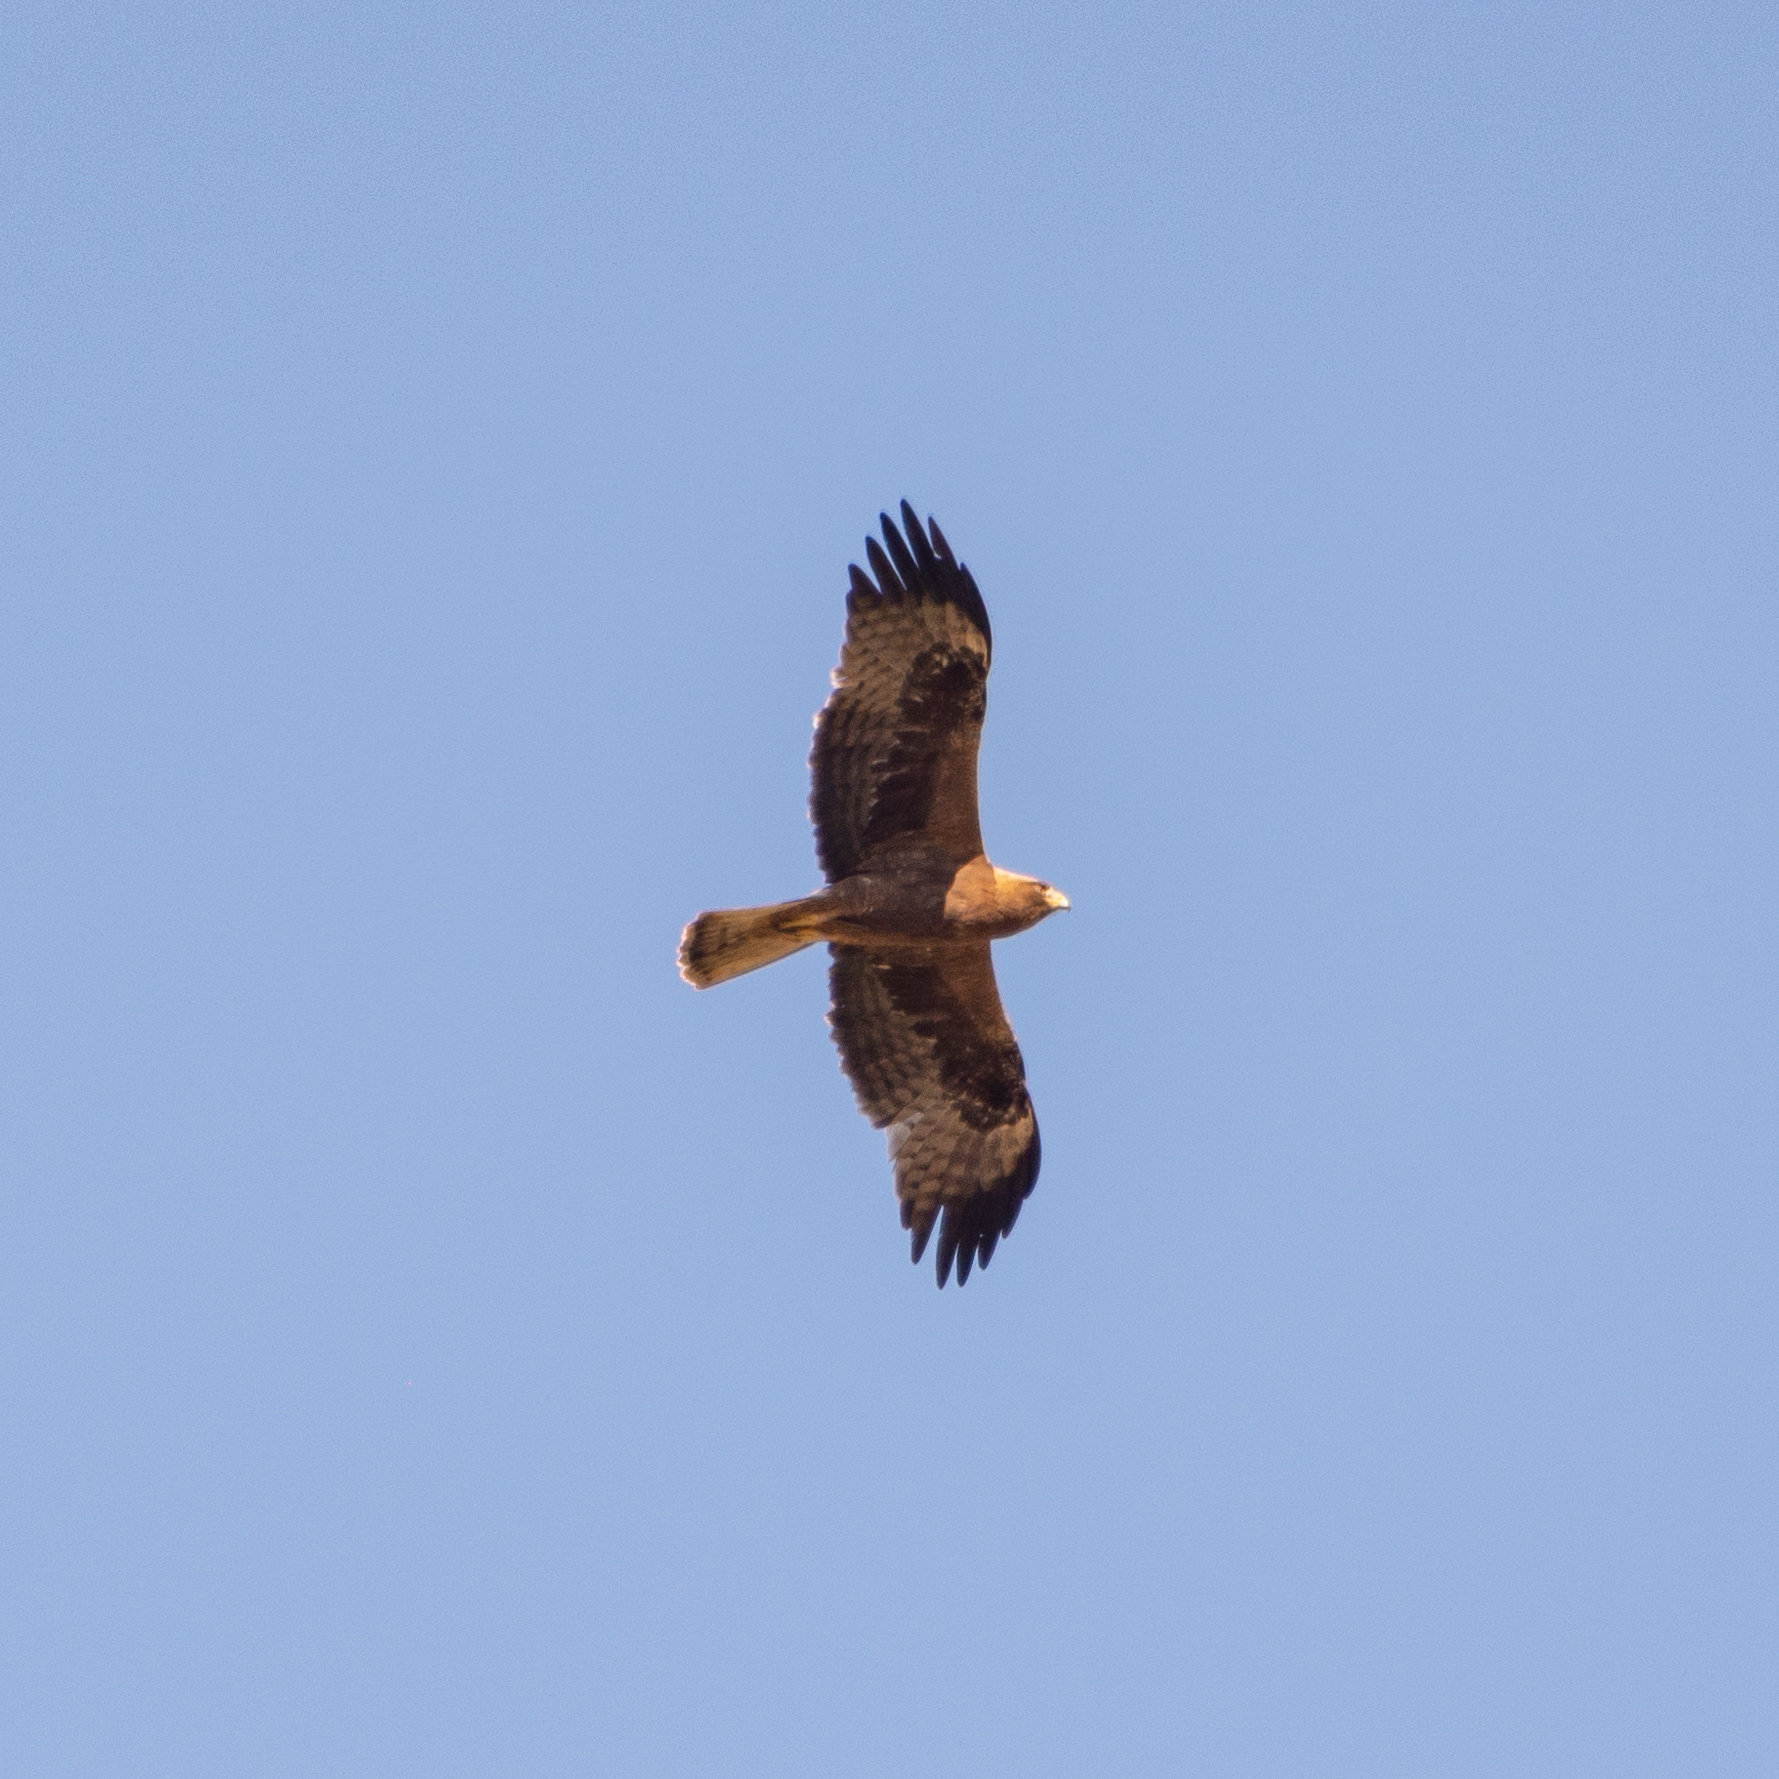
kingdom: Animalia
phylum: Chordata
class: Aves
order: Accipitriformes
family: Accipitridae
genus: Hieraaetus
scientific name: Hieraaetus pennatus
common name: Booted eagle
